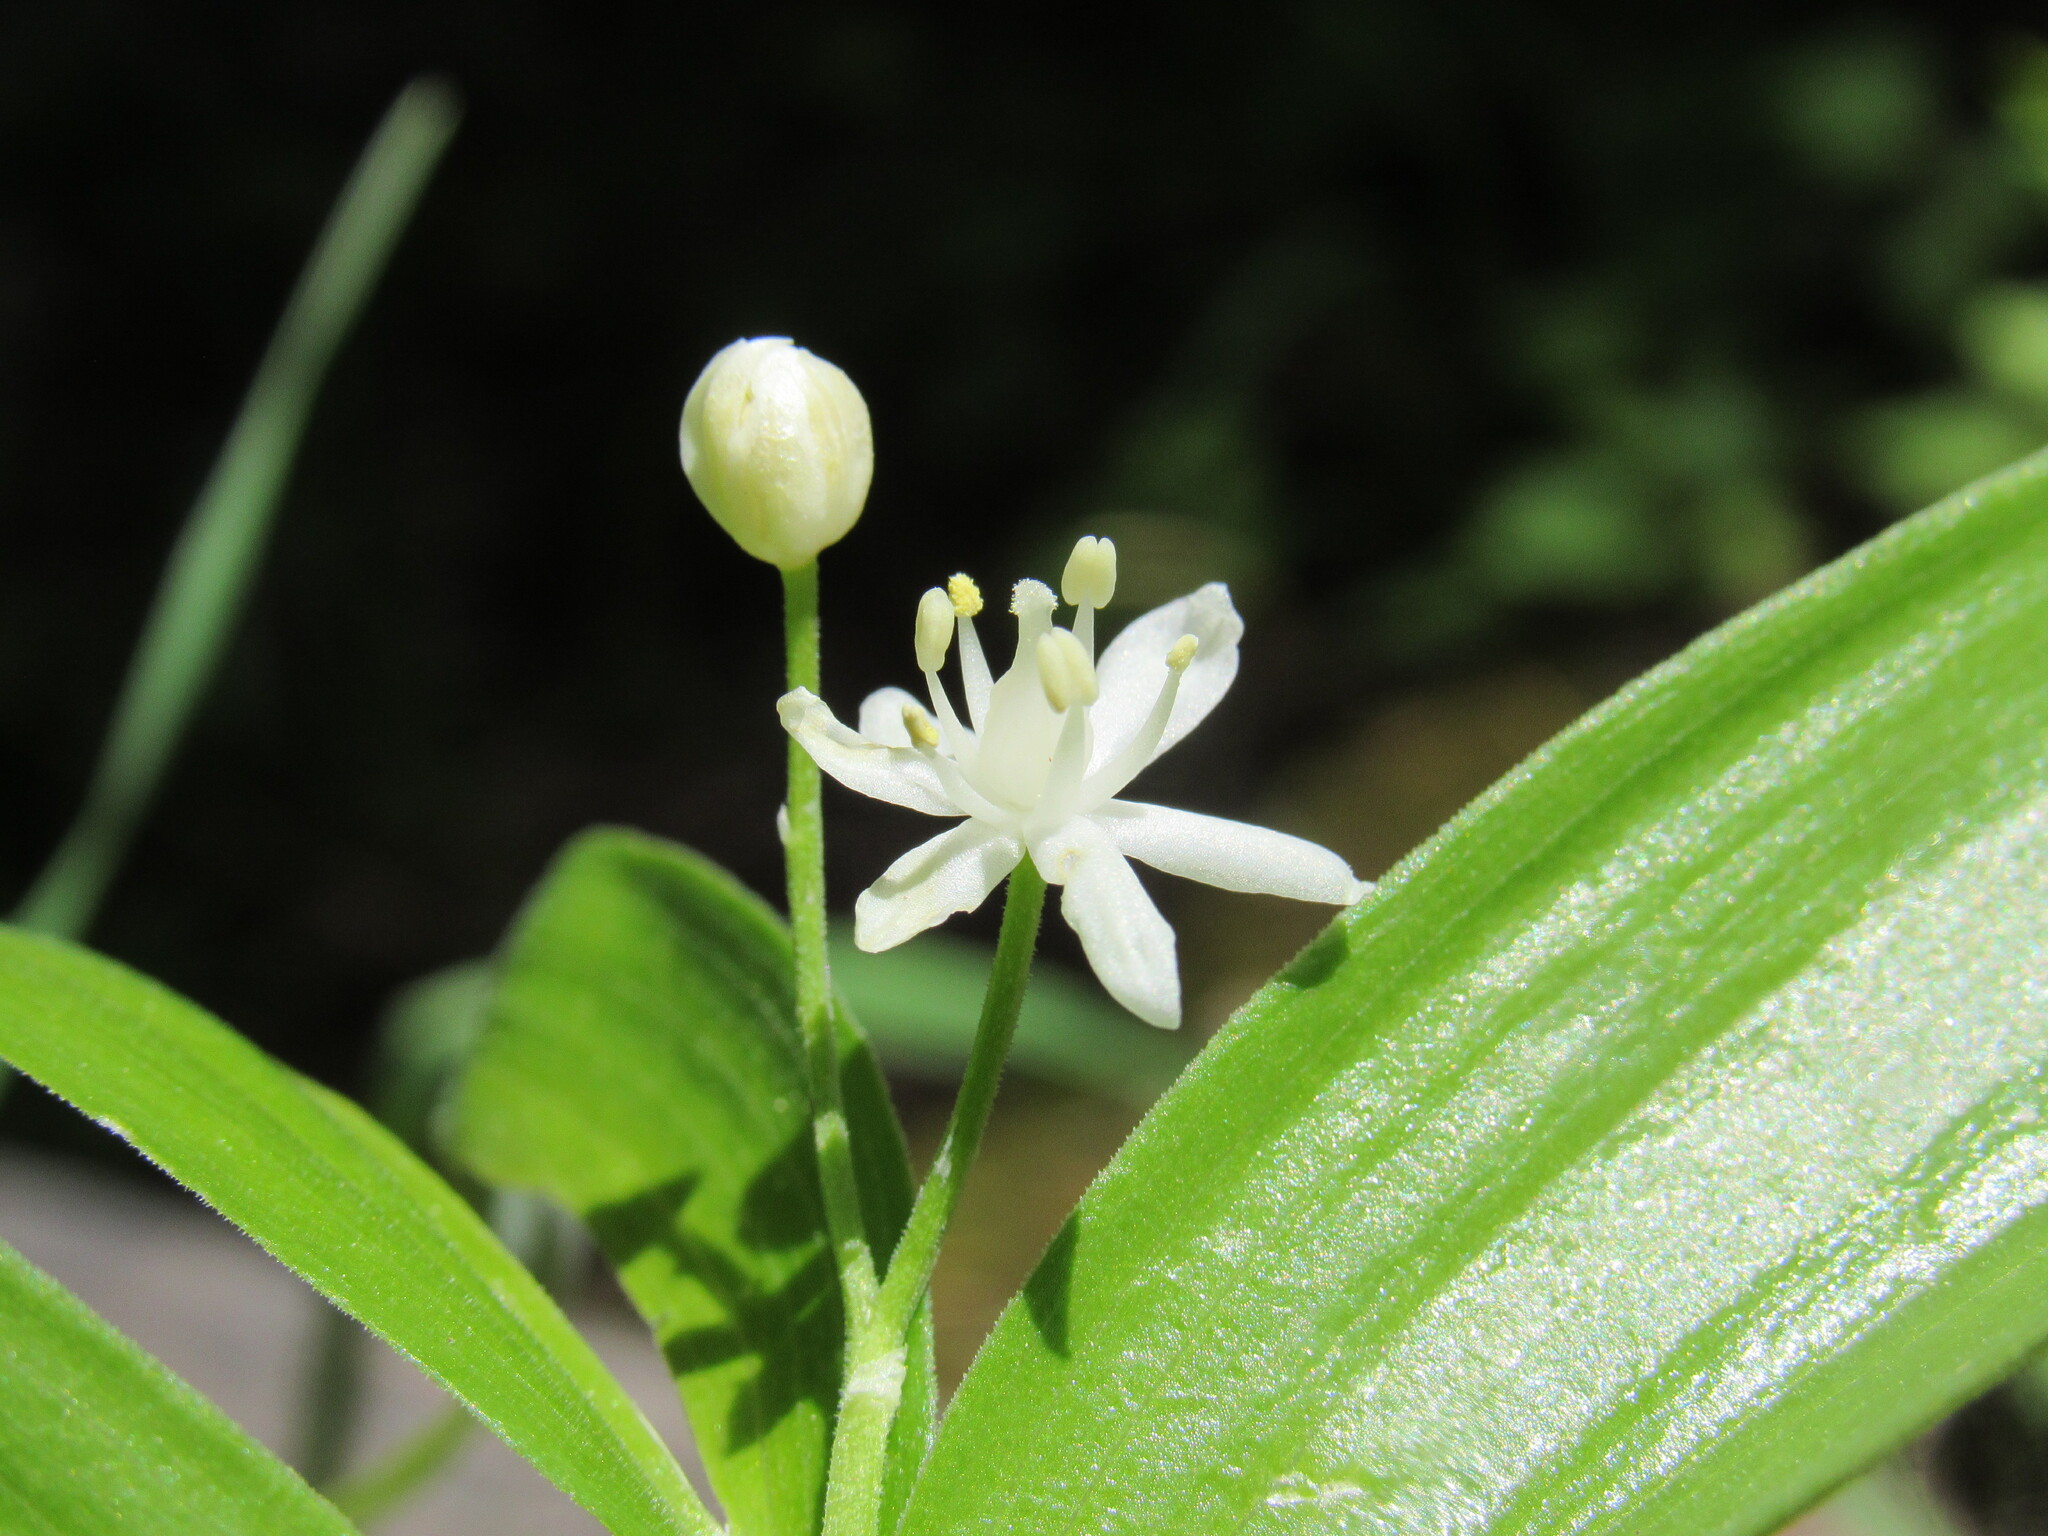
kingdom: Plantae
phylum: Tracheophyta
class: Liliopsida
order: Asparagales
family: Asparagaceae
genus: Maianthemum
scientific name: Maianthemum stellatum
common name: Little false solomon's seal
